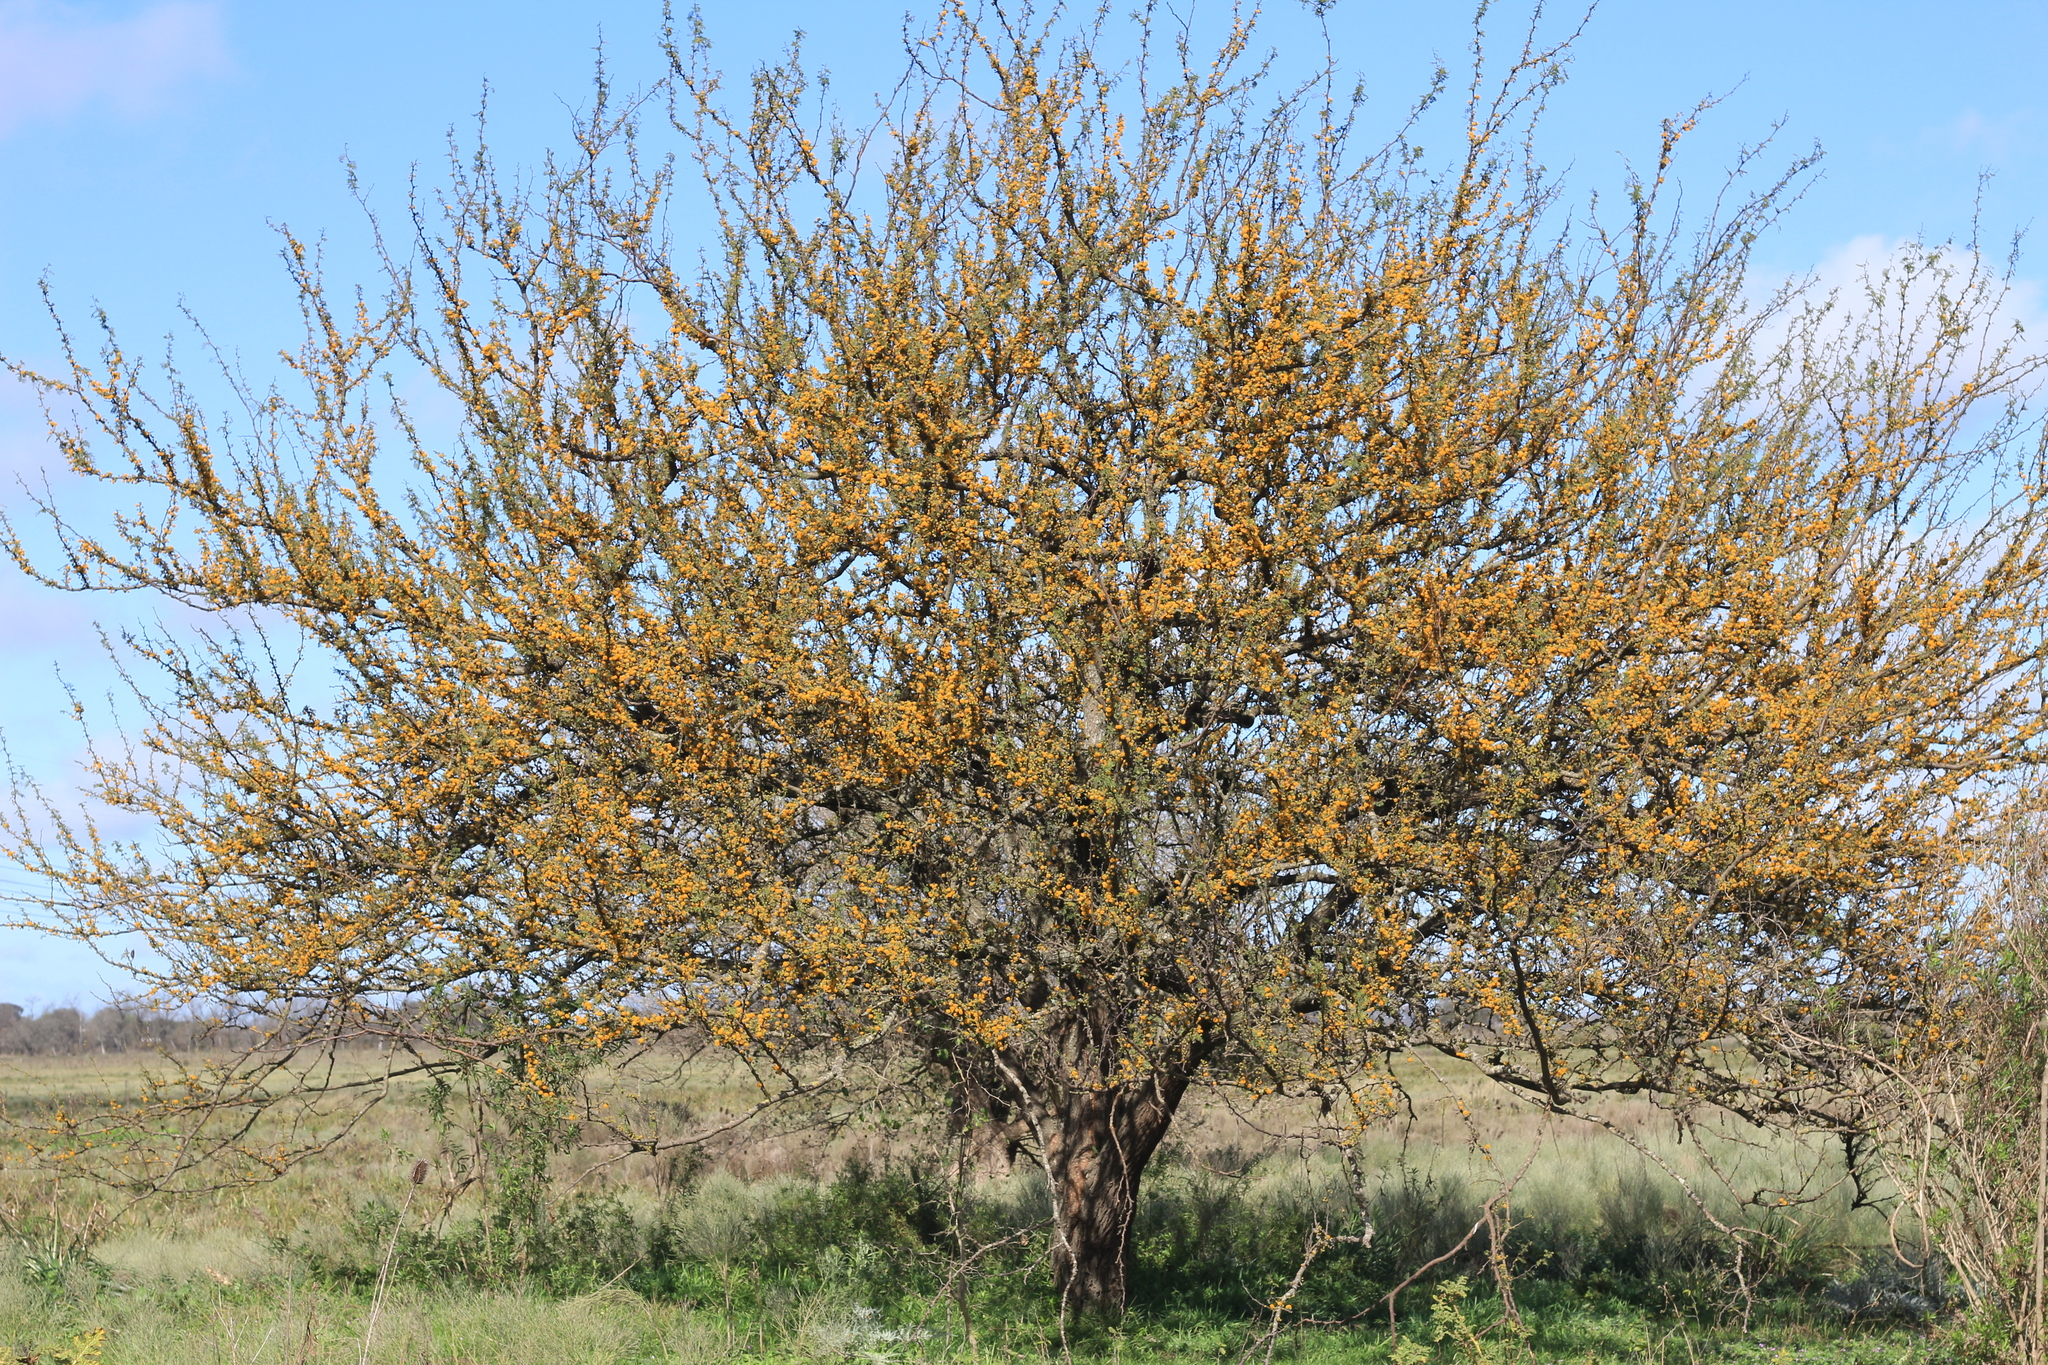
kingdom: Plantae
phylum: Tracheophyta
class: Magnoliopsida
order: Fabales
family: Fabaceae
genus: Vachellia
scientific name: Vachellia caven
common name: Roman cassie
